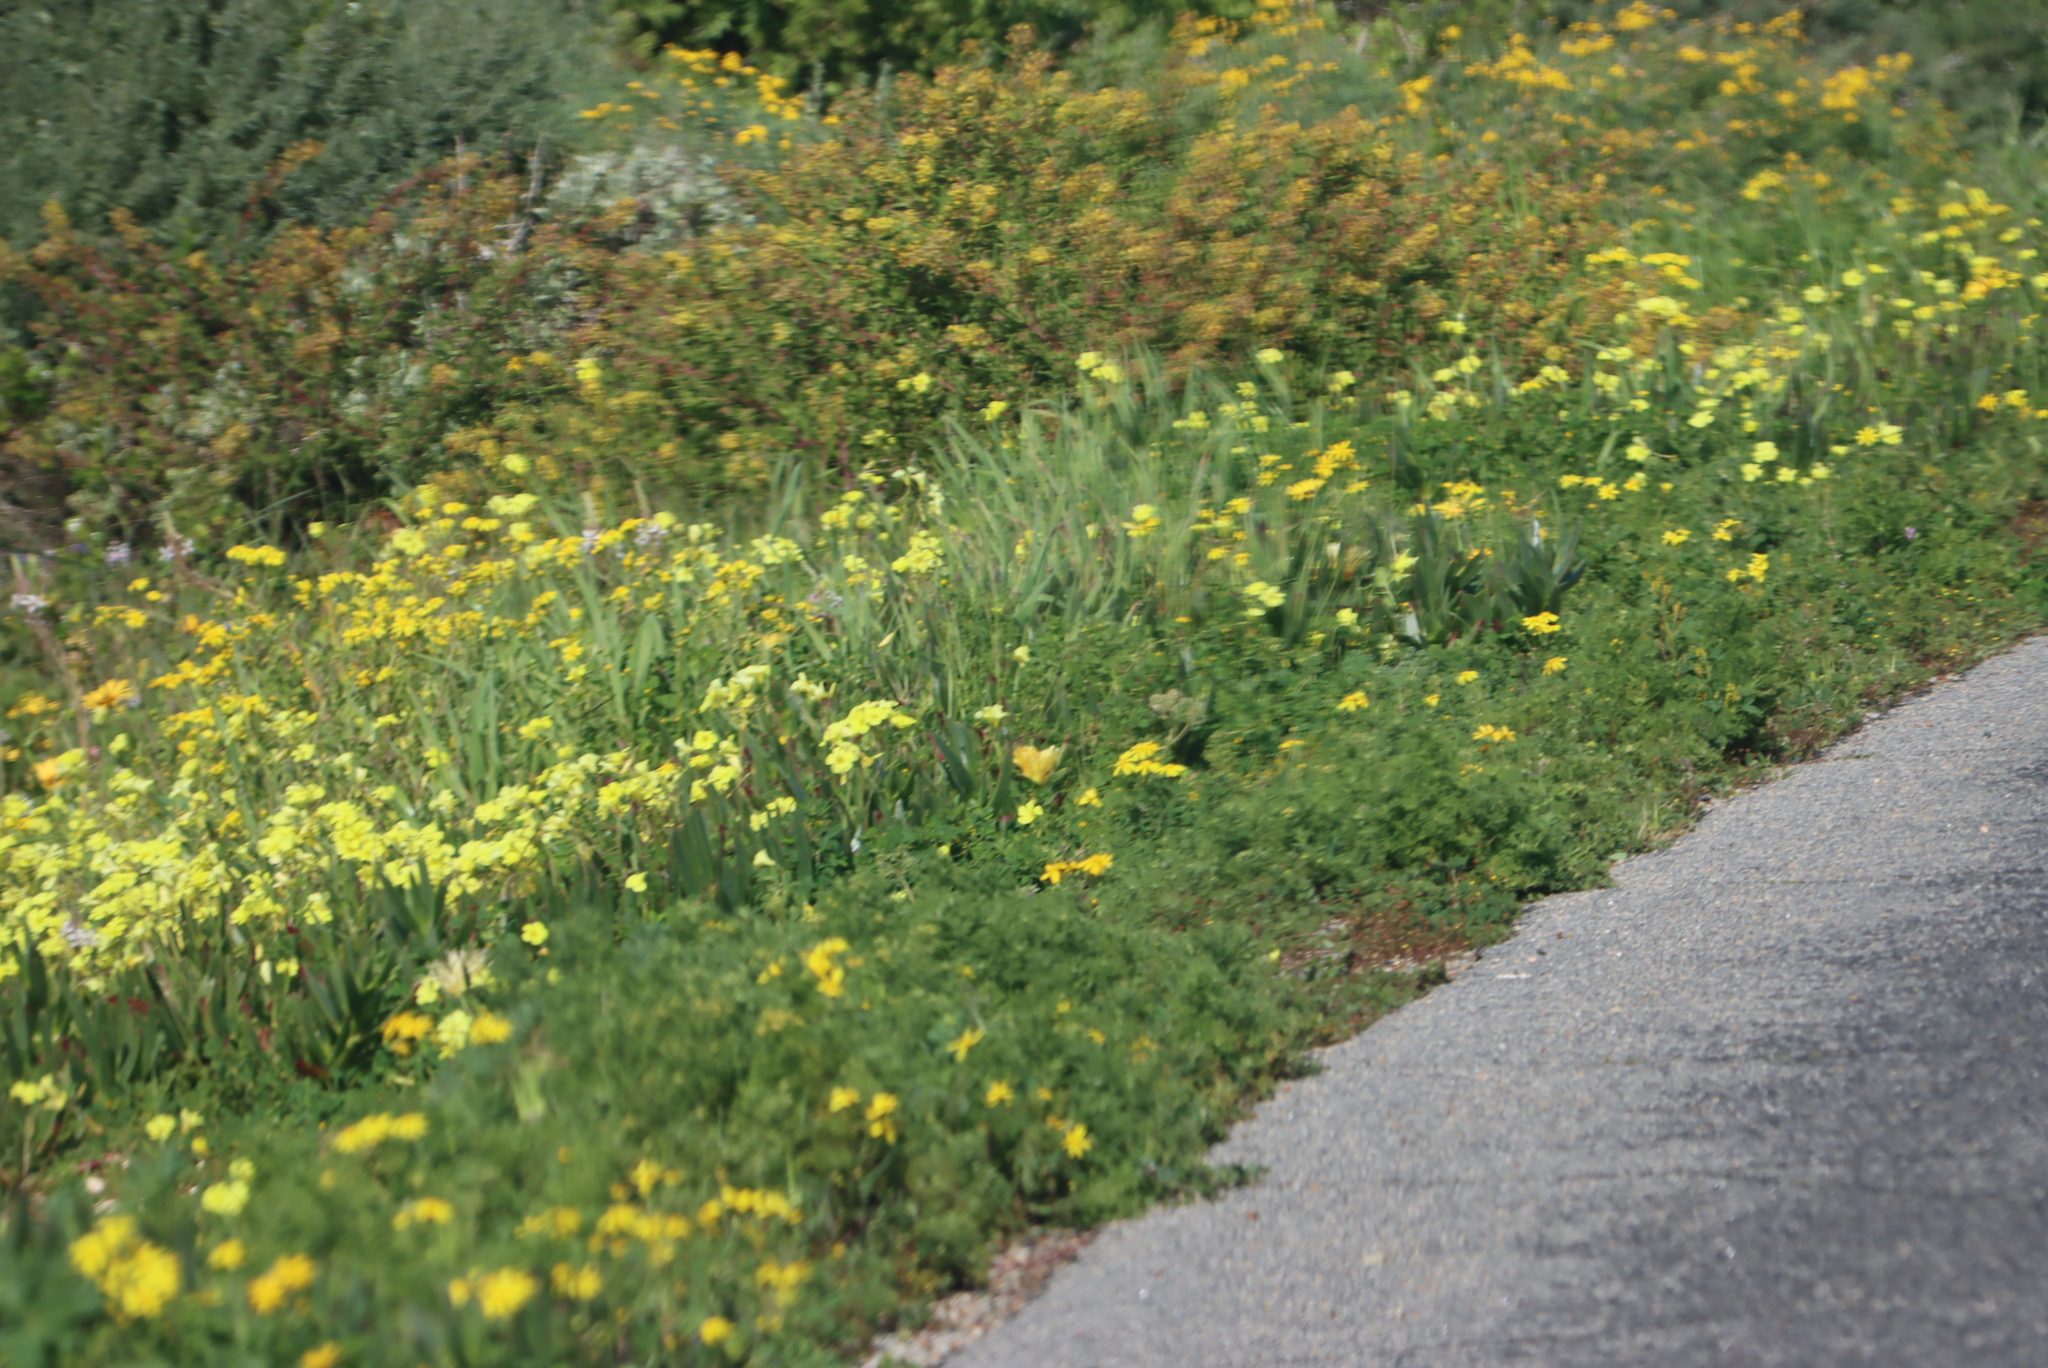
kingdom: Plantae
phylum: Tracheophyta
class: Magnoliopsida
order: Oxalidales
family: Oxalidaceae
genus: Oxalis
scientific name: Oxalis pes-caprae
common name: Bermuda-buttercup
